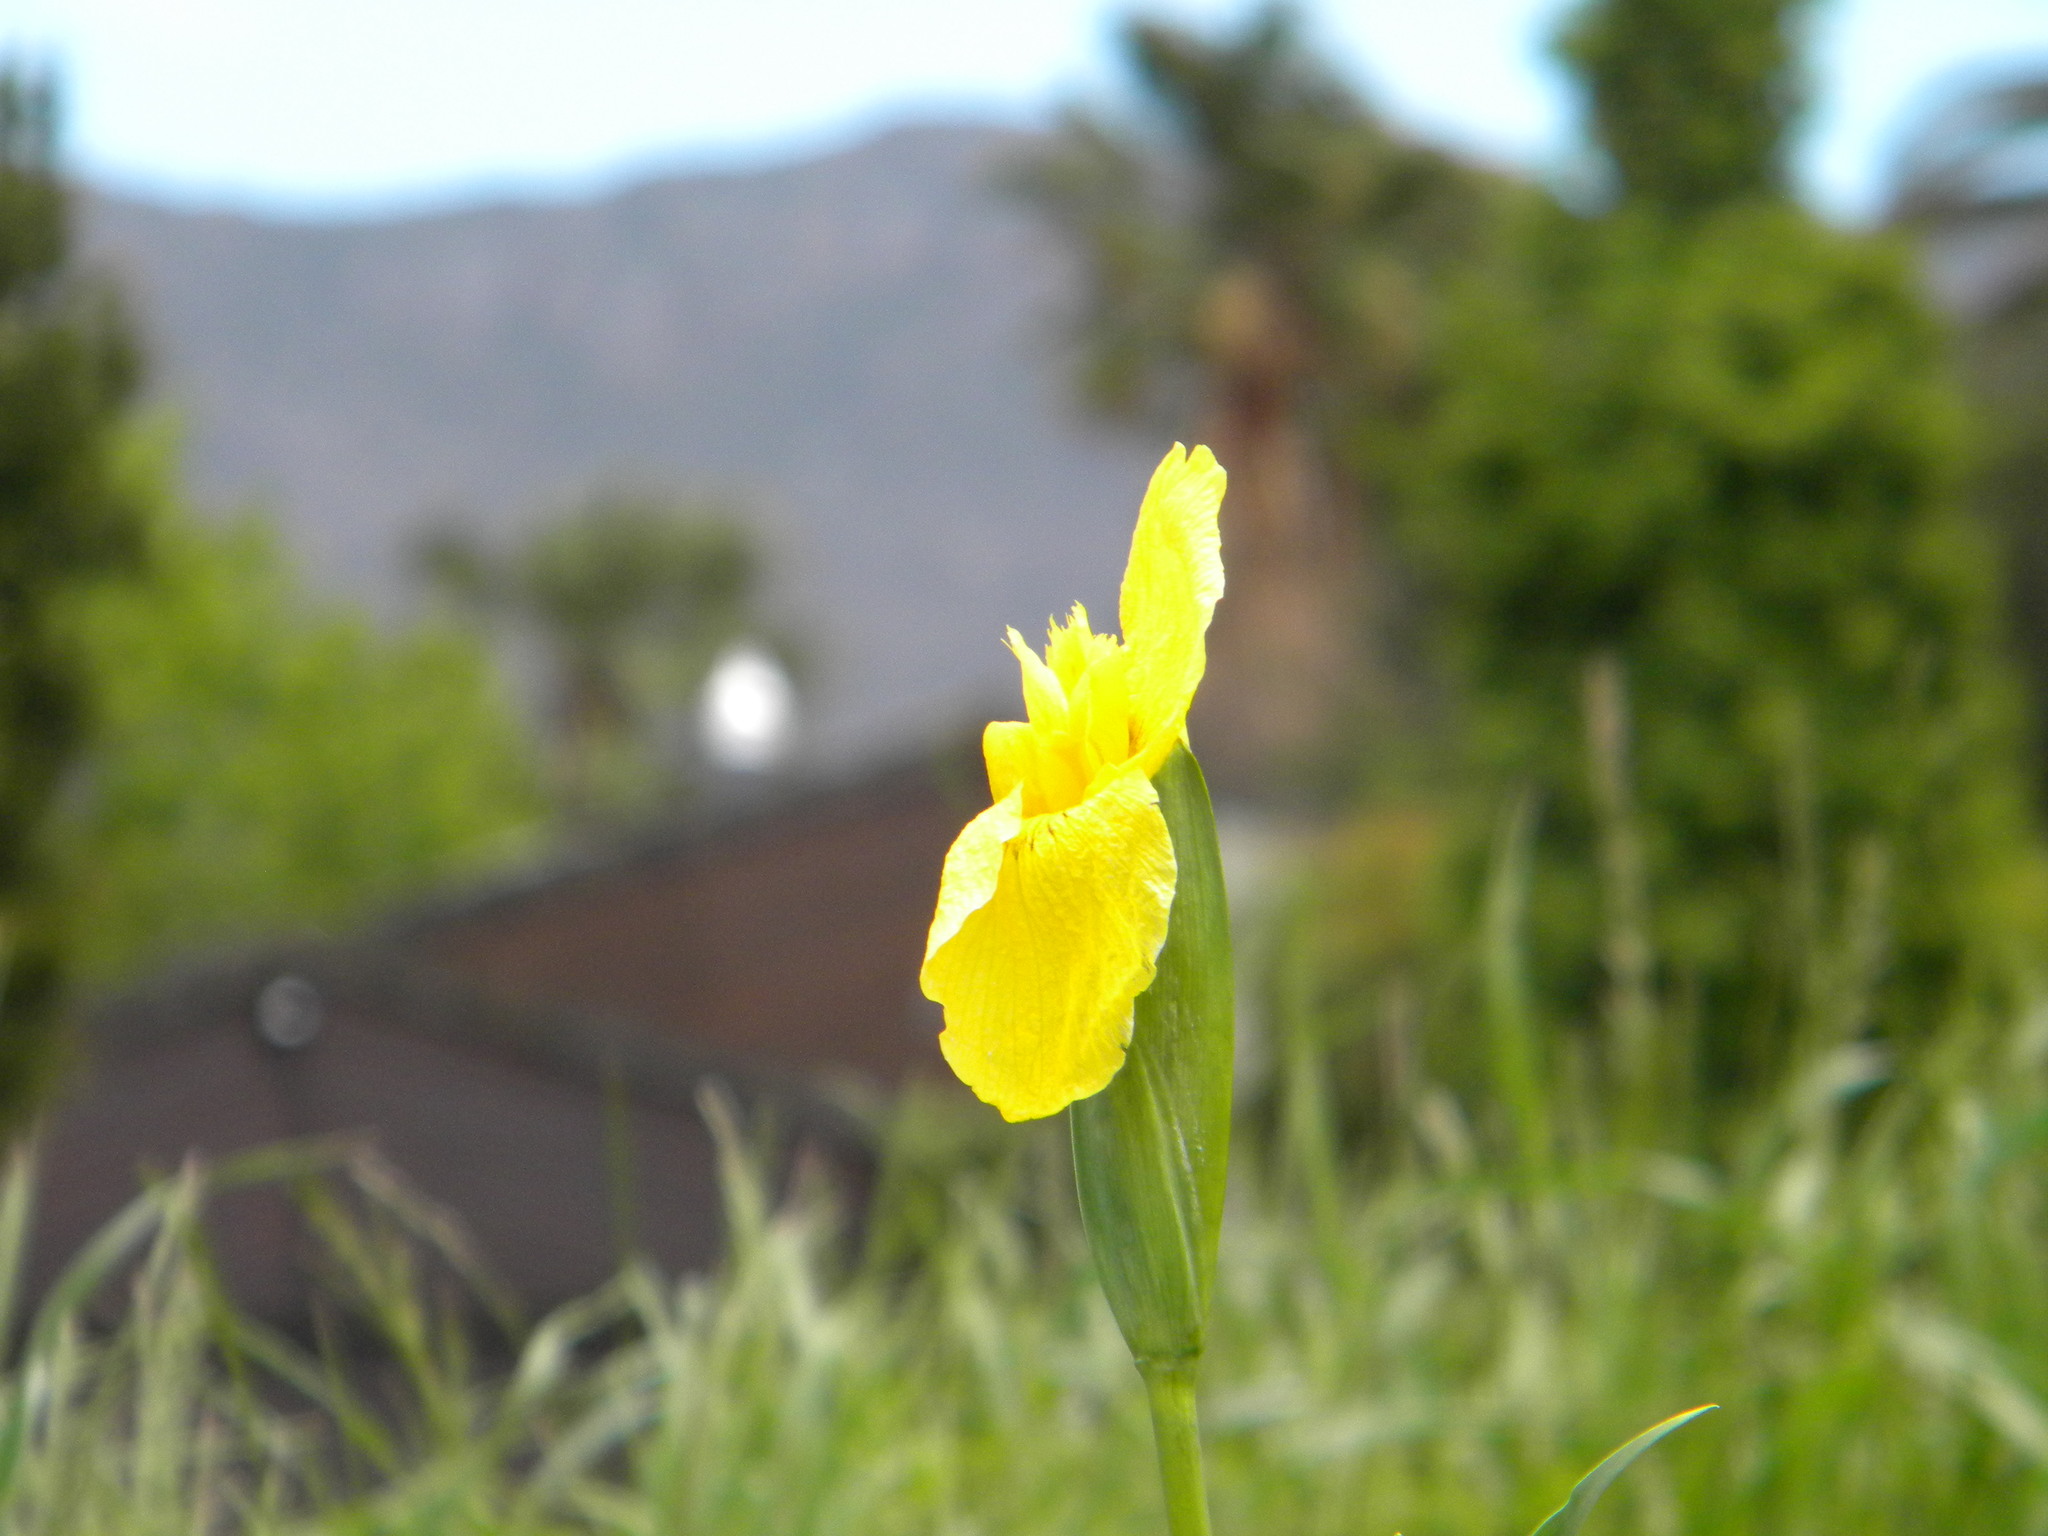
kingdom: Plantae
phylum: Tracheophyta
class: Liliopsida
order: Asparagales
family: Iridaceae
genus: Iris
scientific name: Iris pseudacorus
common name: Yellow flag
